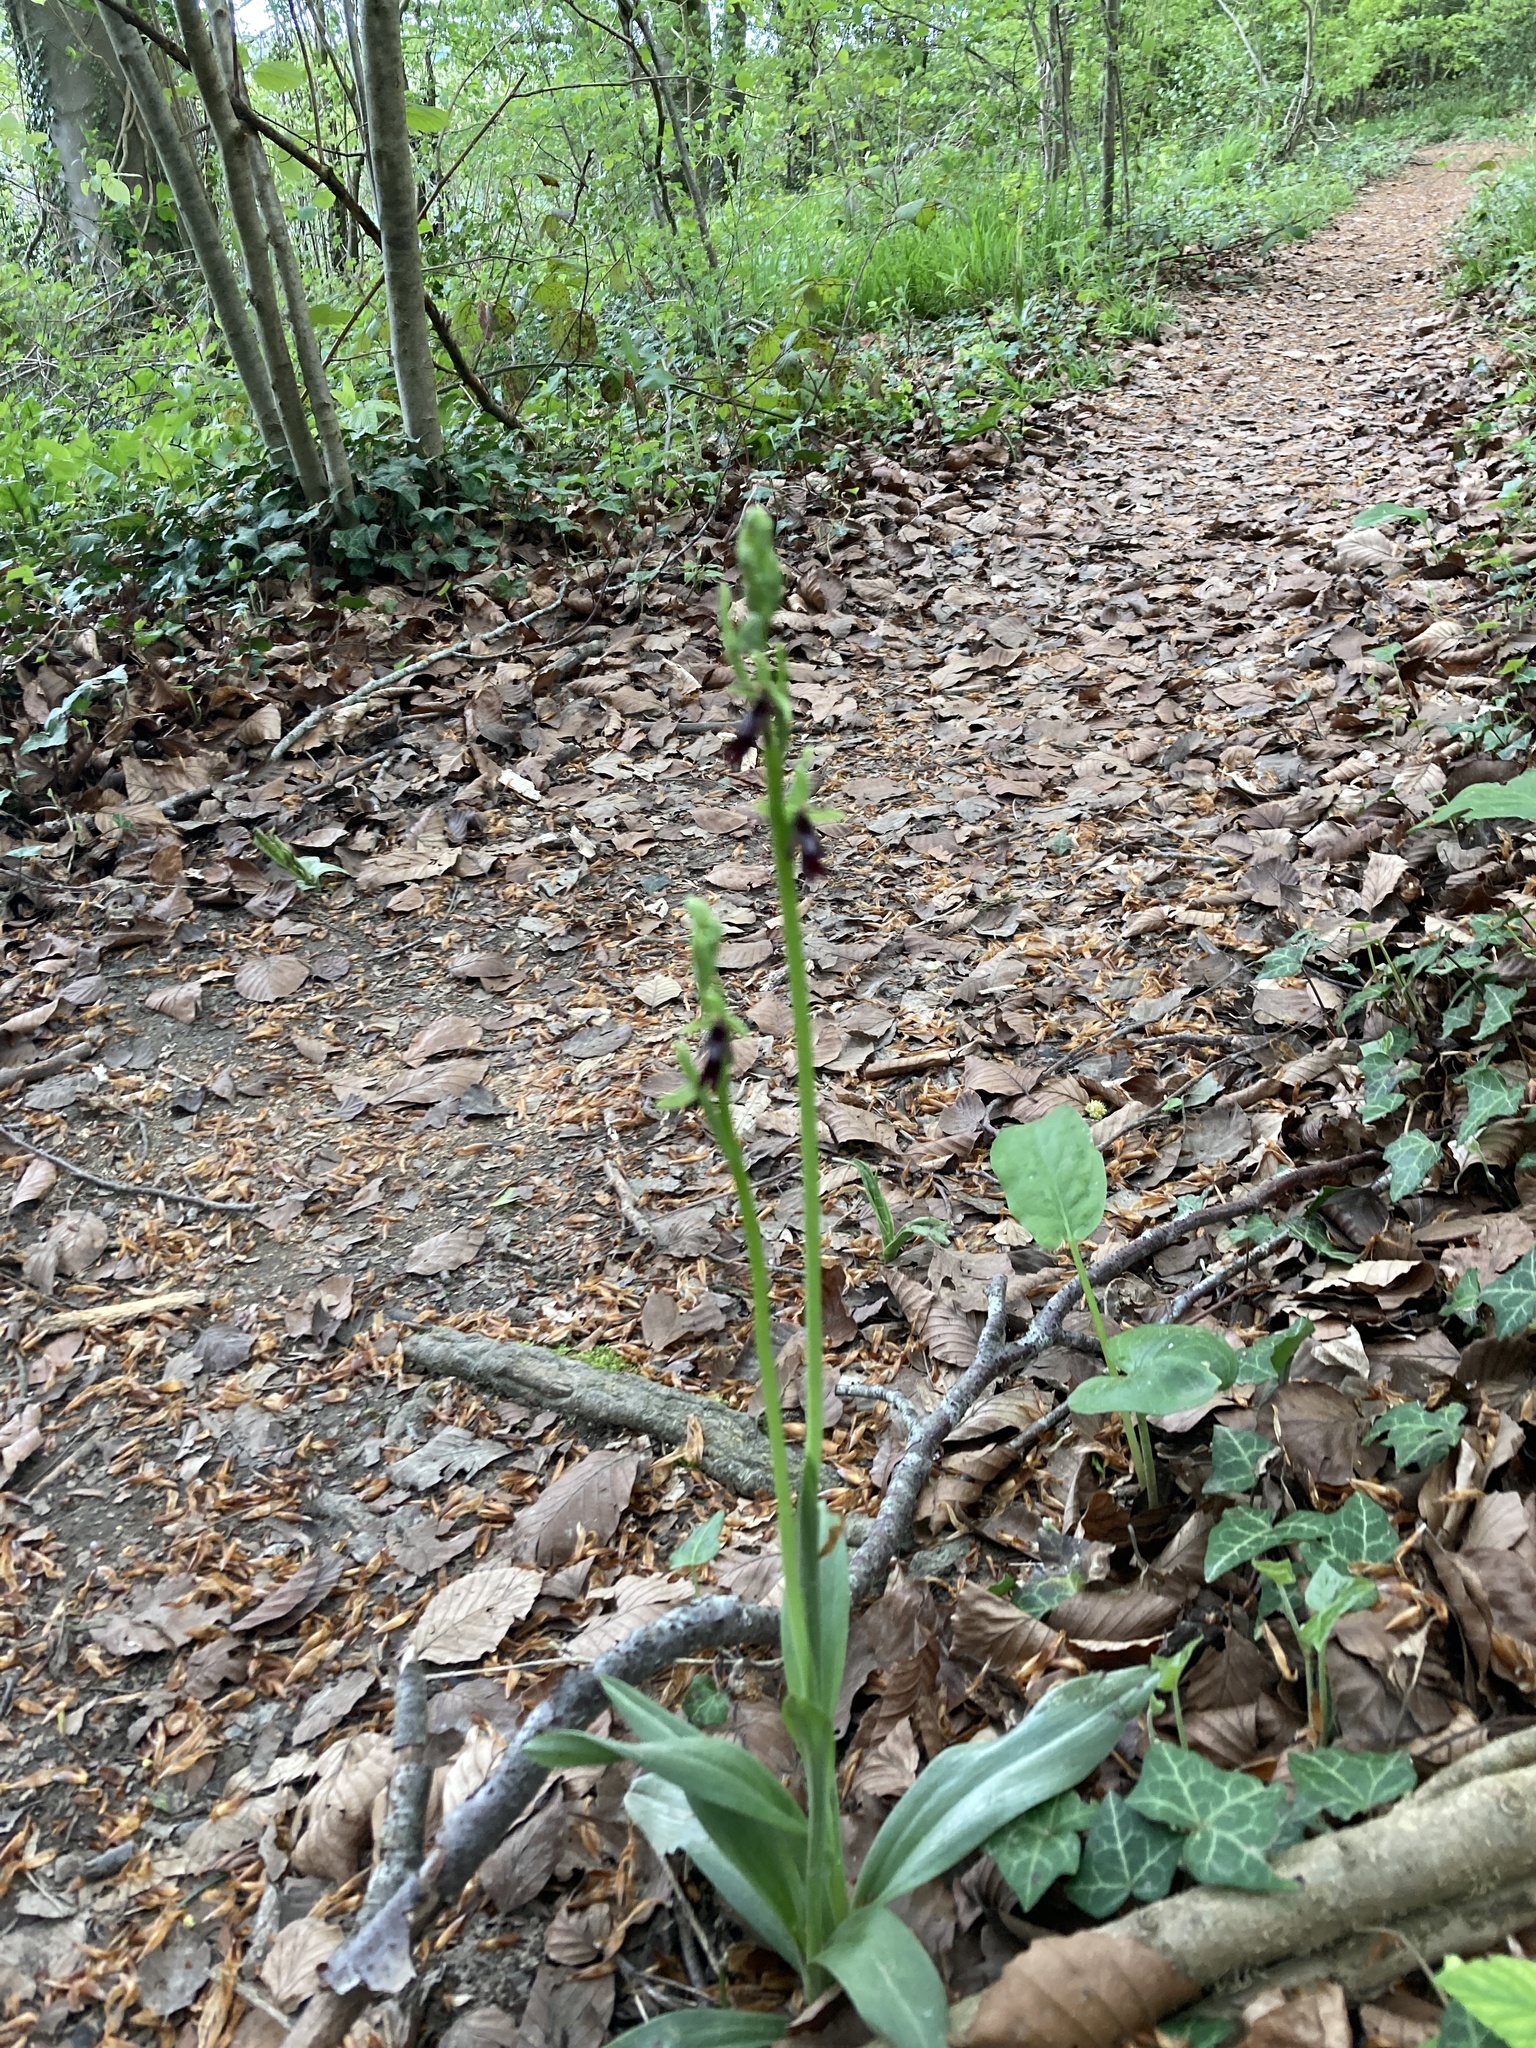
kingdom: Plantae
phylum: Tracheophyta
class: Liliopsida
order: Asparagales
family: Orchidaceae
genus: Ophrys
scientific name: Ophrys insectifera
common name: Fly orchid
